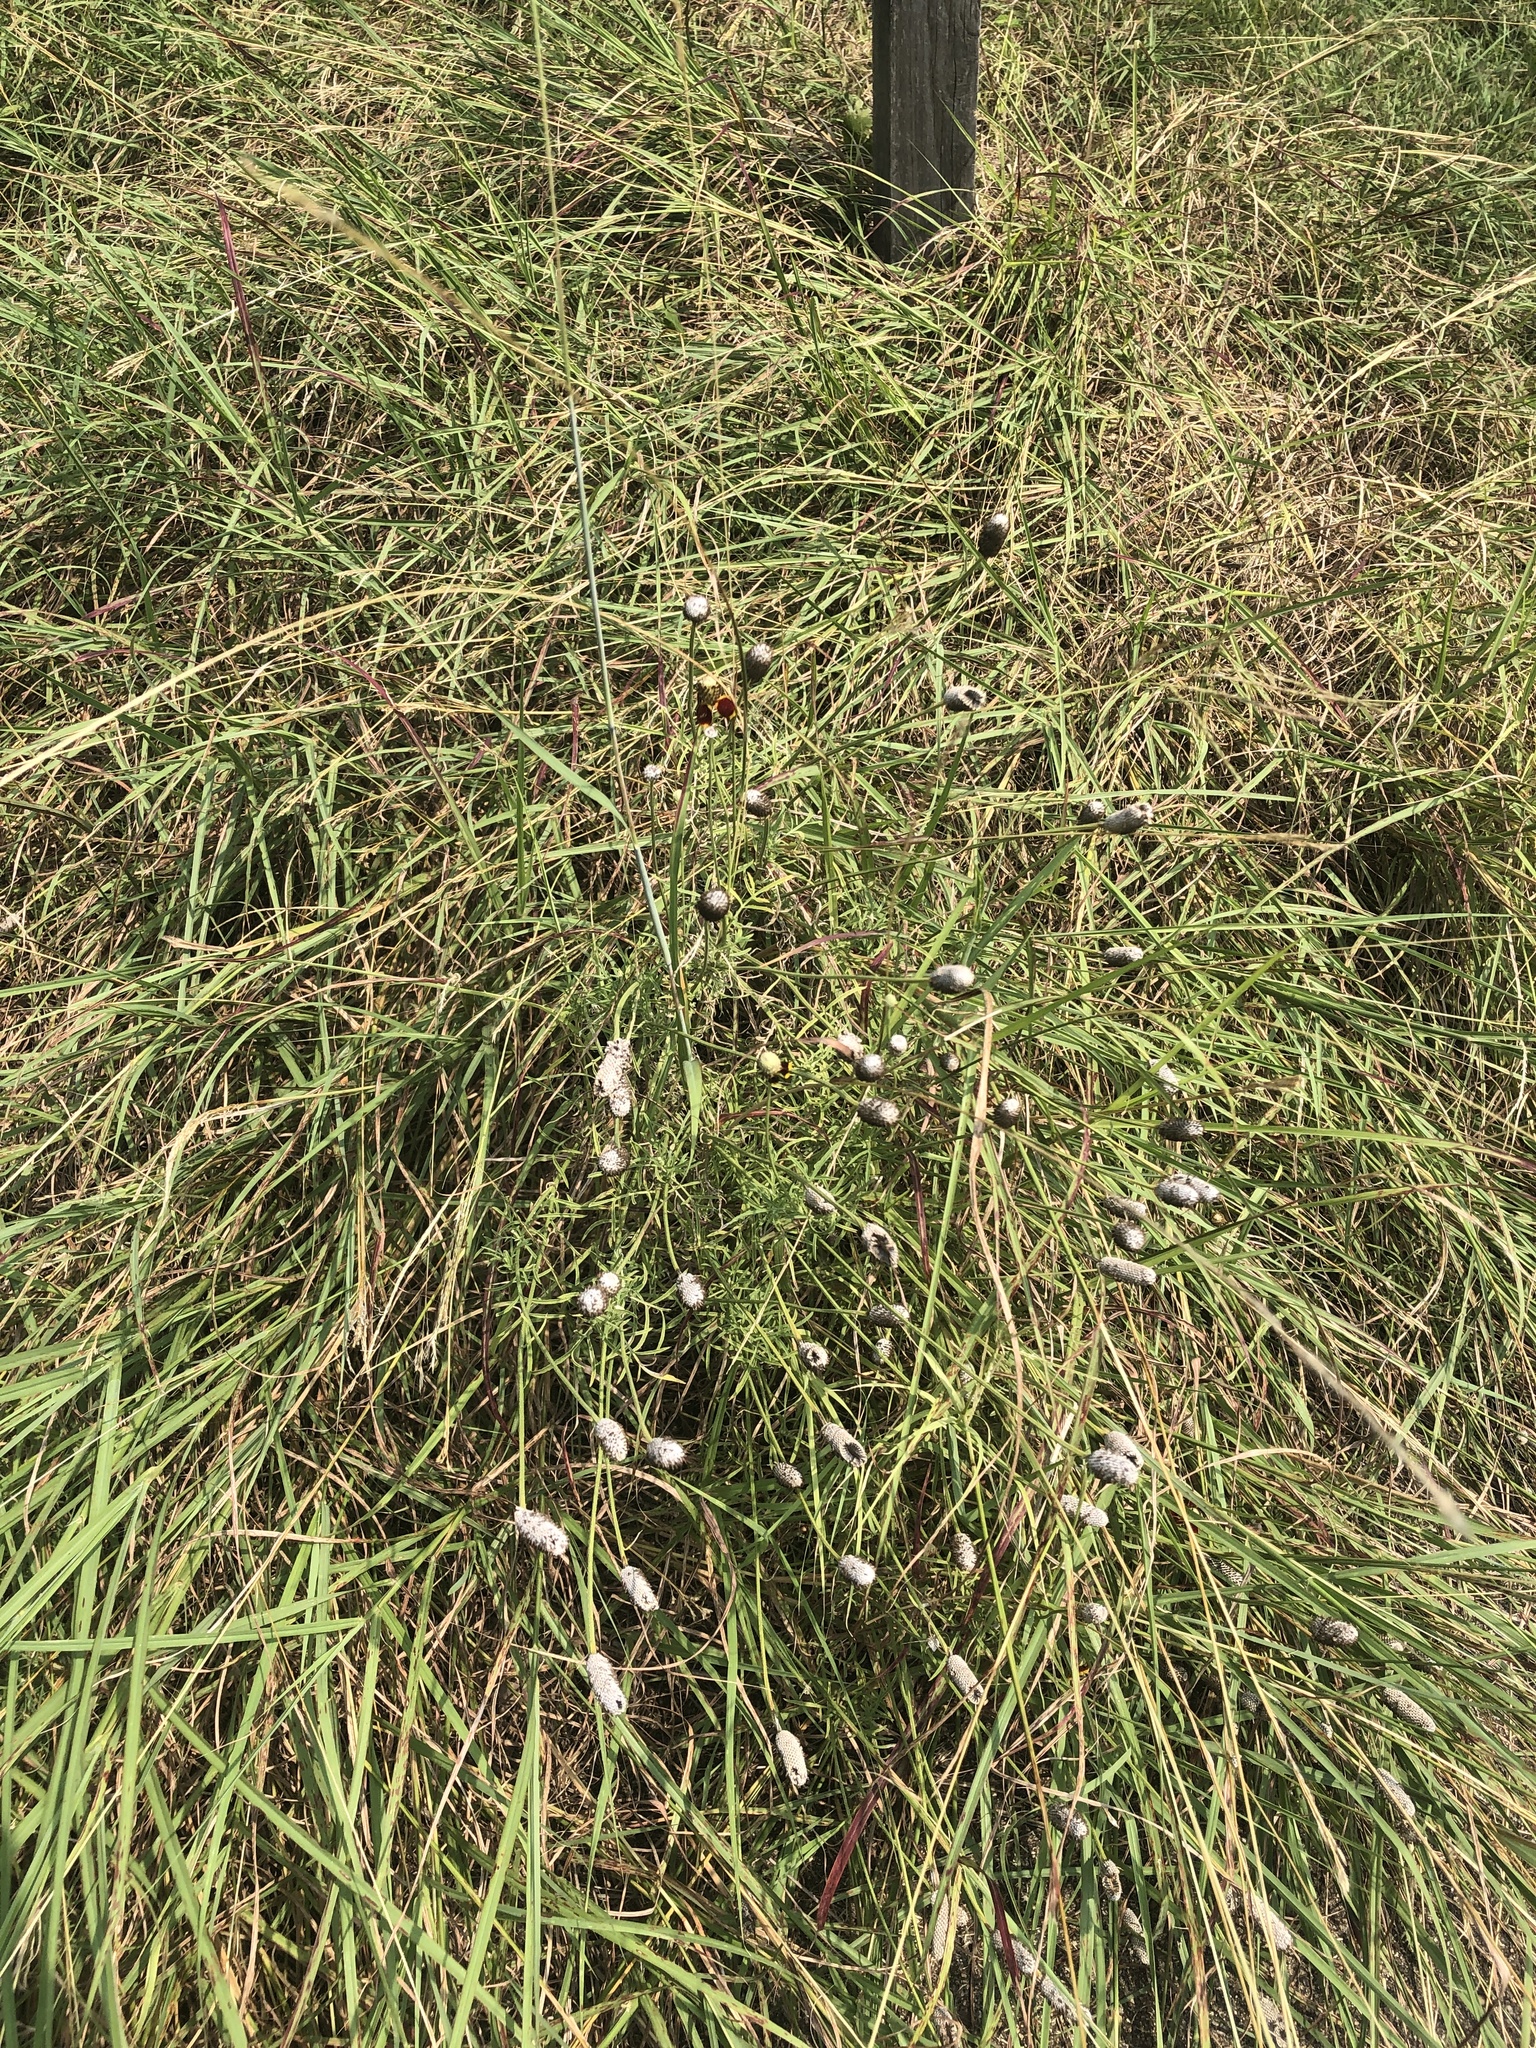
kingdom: Plantae
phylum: Tracheophyta
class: Magnoliopsida
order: Asterales
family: Asteraceae
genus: Ratibida
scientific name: Ratibida columnifera
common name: Prairie coneflower
